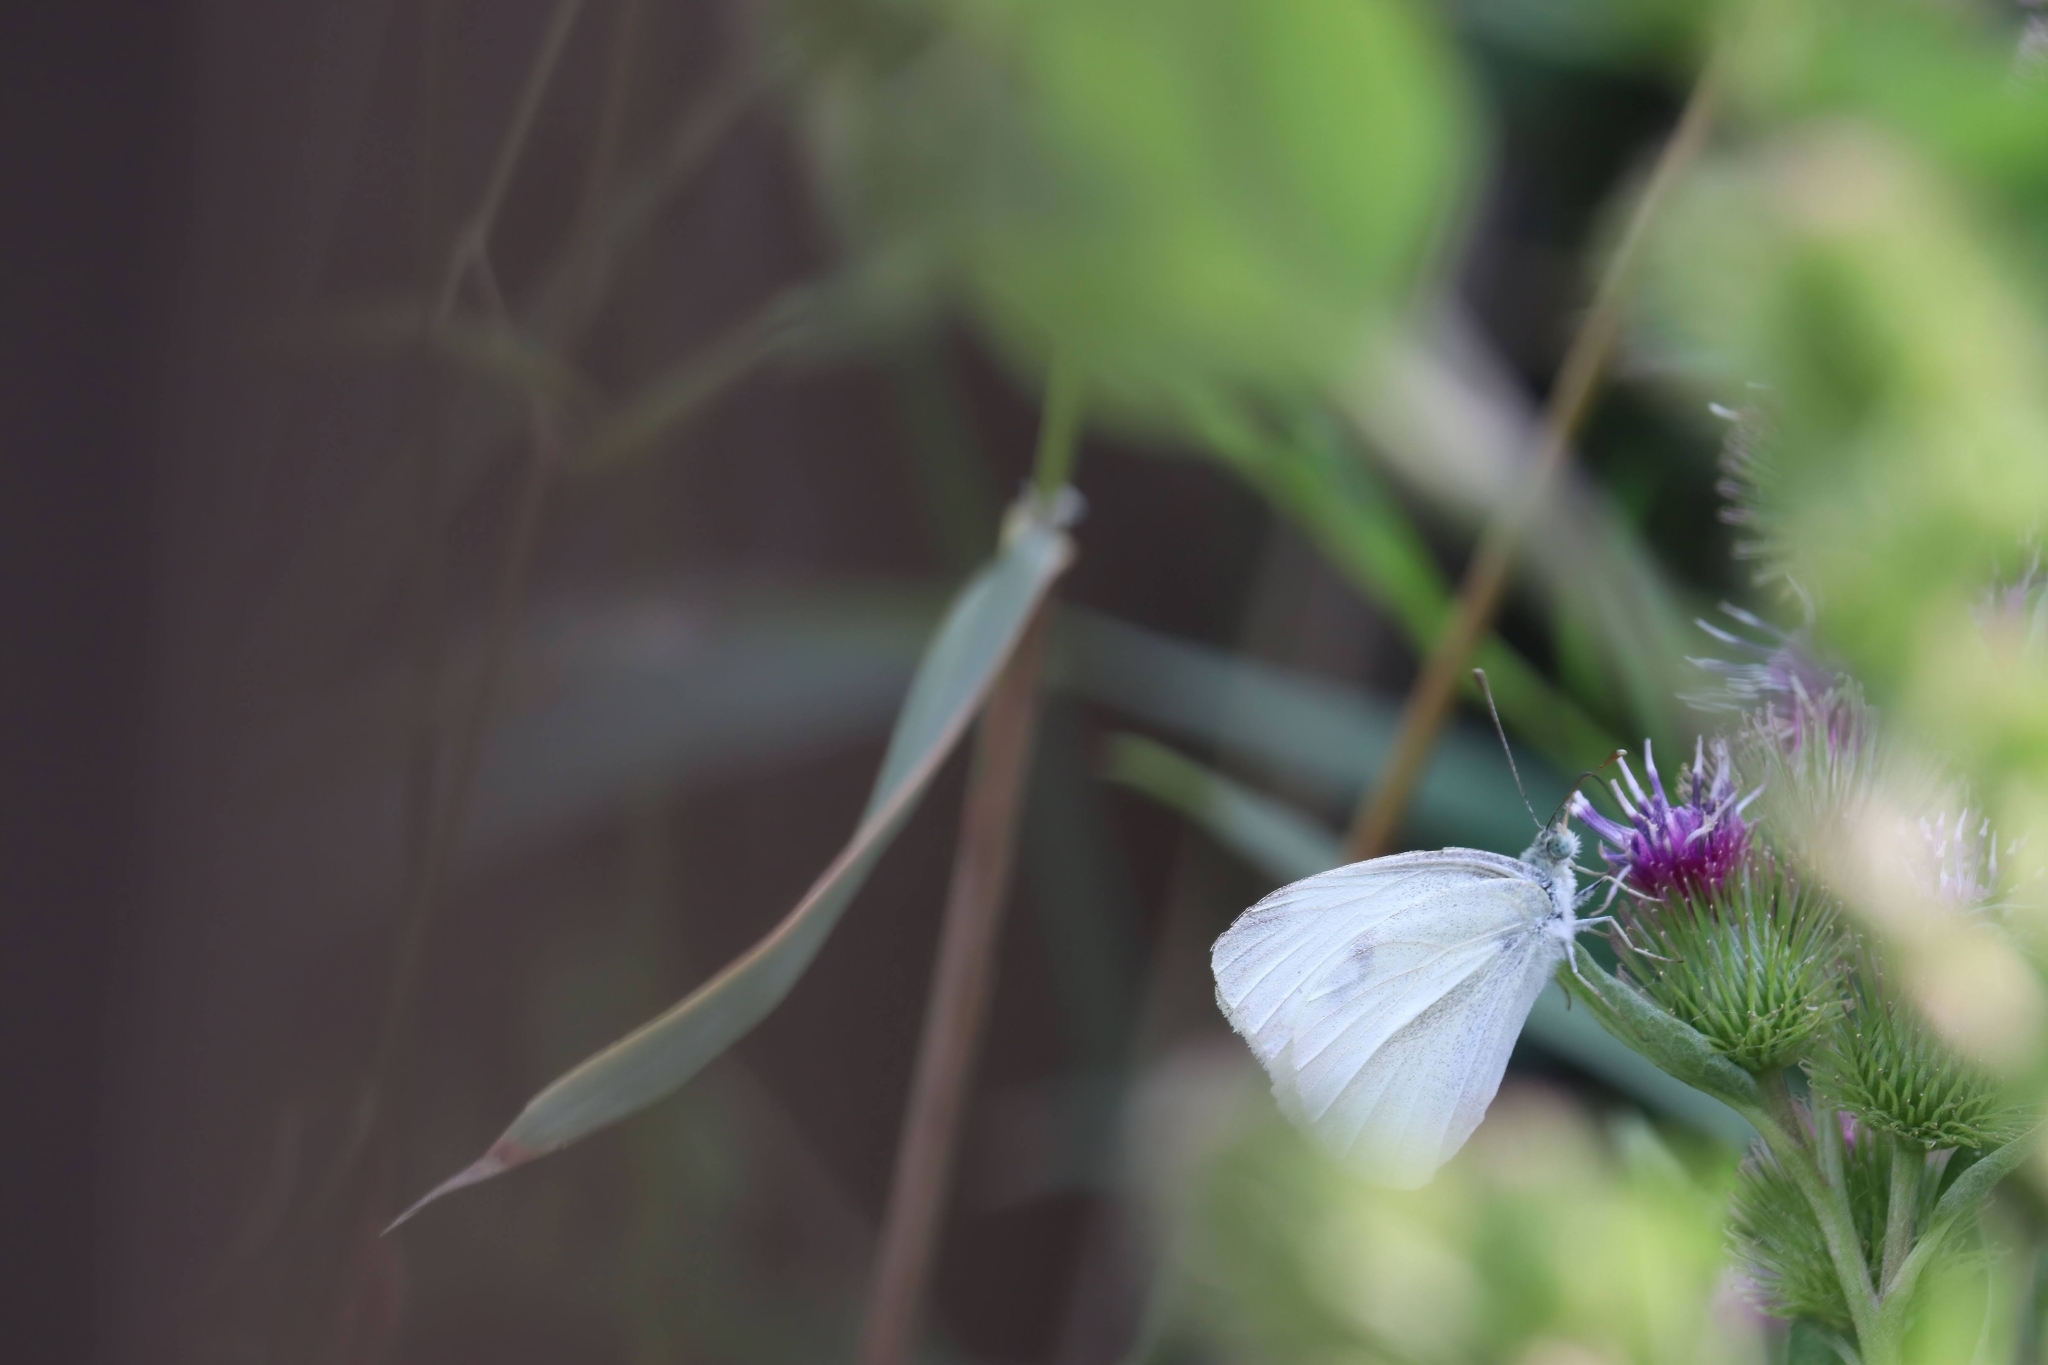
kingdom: Animalia
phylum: Arthropoda
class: Insecta
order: Lepidoptera
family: Pieridae
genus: Pieris
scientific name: Pieris rapae
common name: Small white
